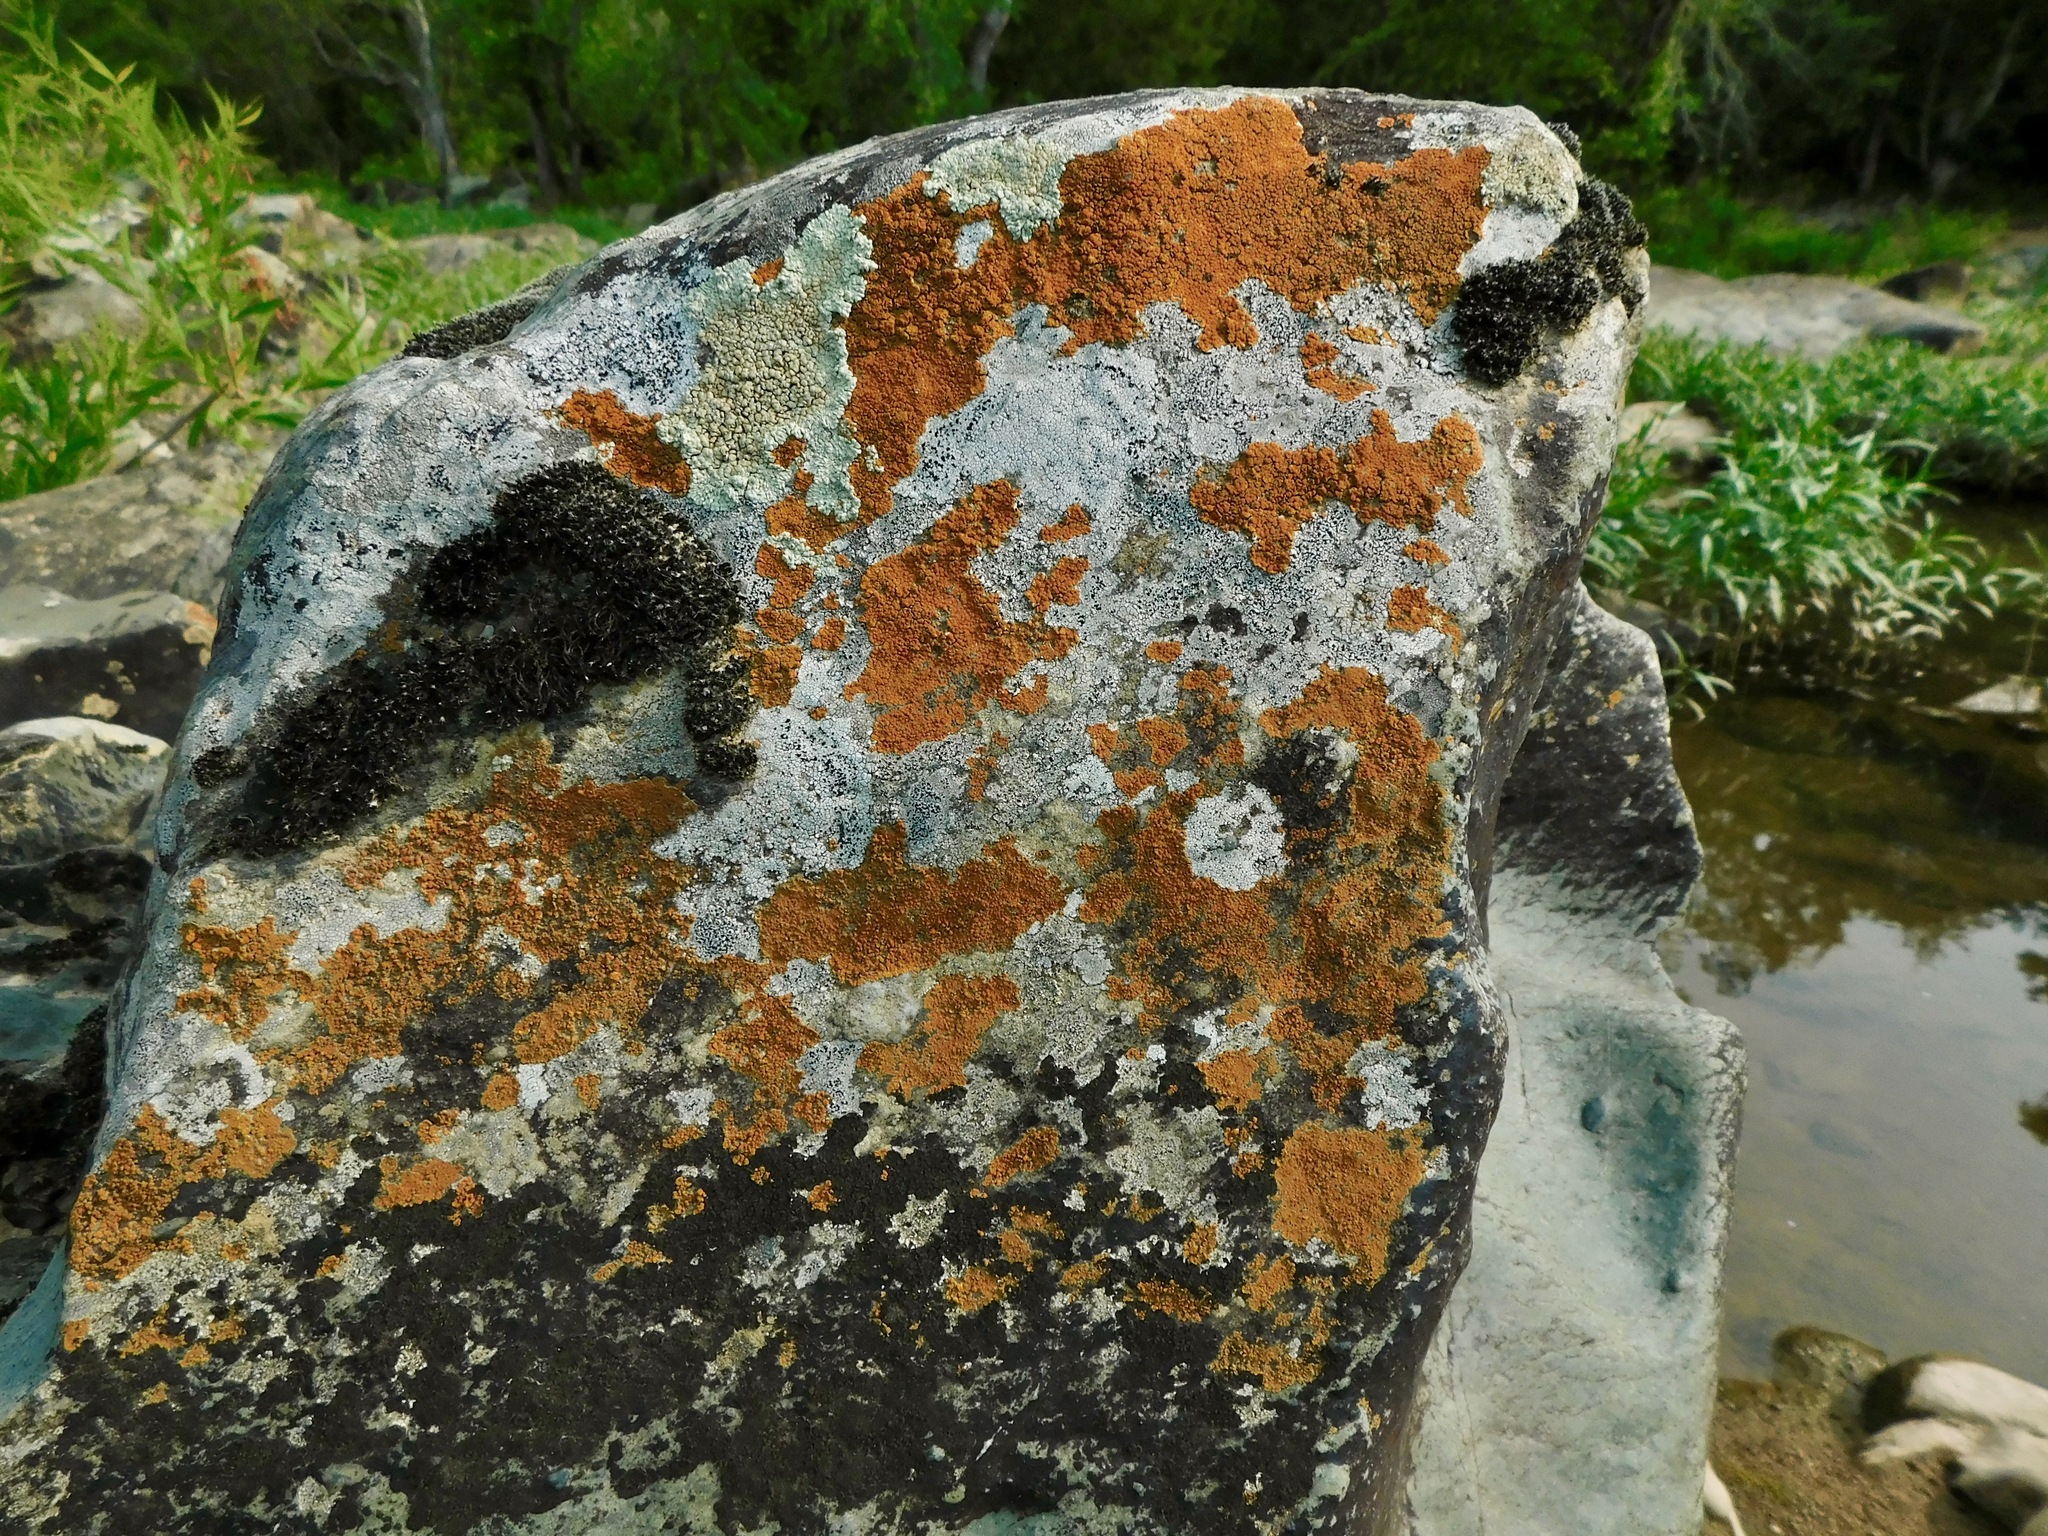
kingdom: Fungi
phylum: Ascomycota
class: Lecanoromycetes
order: Lecanorales
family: Lecanoraceae
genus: Protoparmeliopsis
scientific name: Protoparmeliopsis muralis
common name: Stonewall rim lichen
